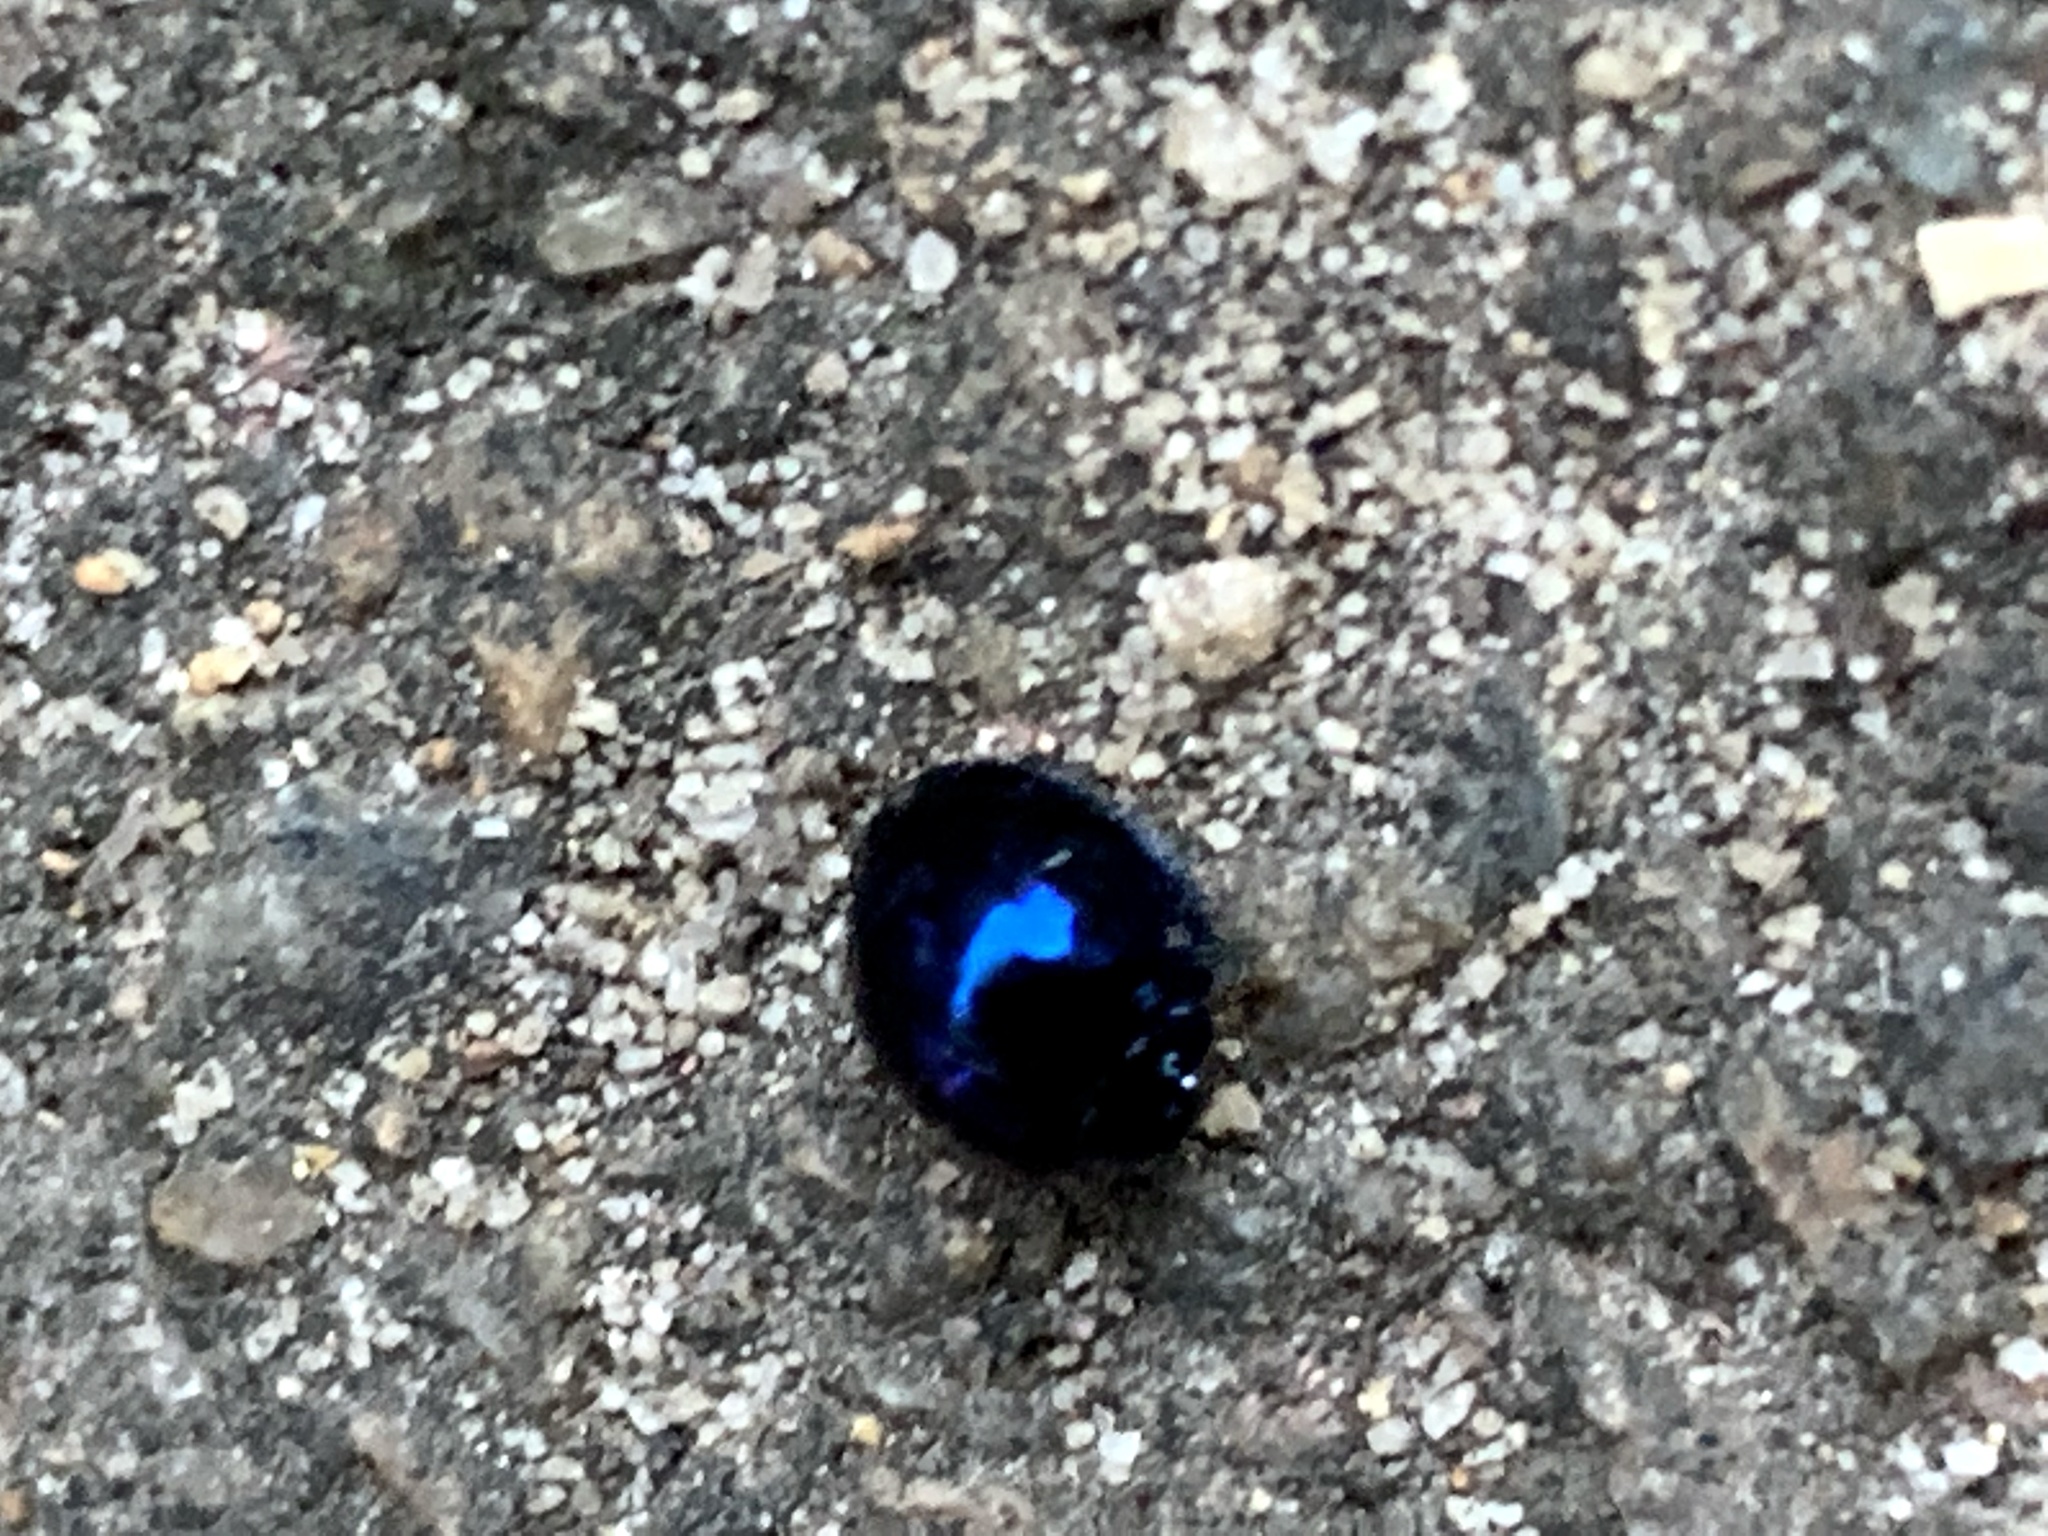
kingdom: Animalia
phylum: Arthropoda
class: Insecta
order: Coleoptera
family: Coccinellidae
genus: Halmus
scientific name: Halmus chalybeus
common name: Steel blue ladybird beetle
